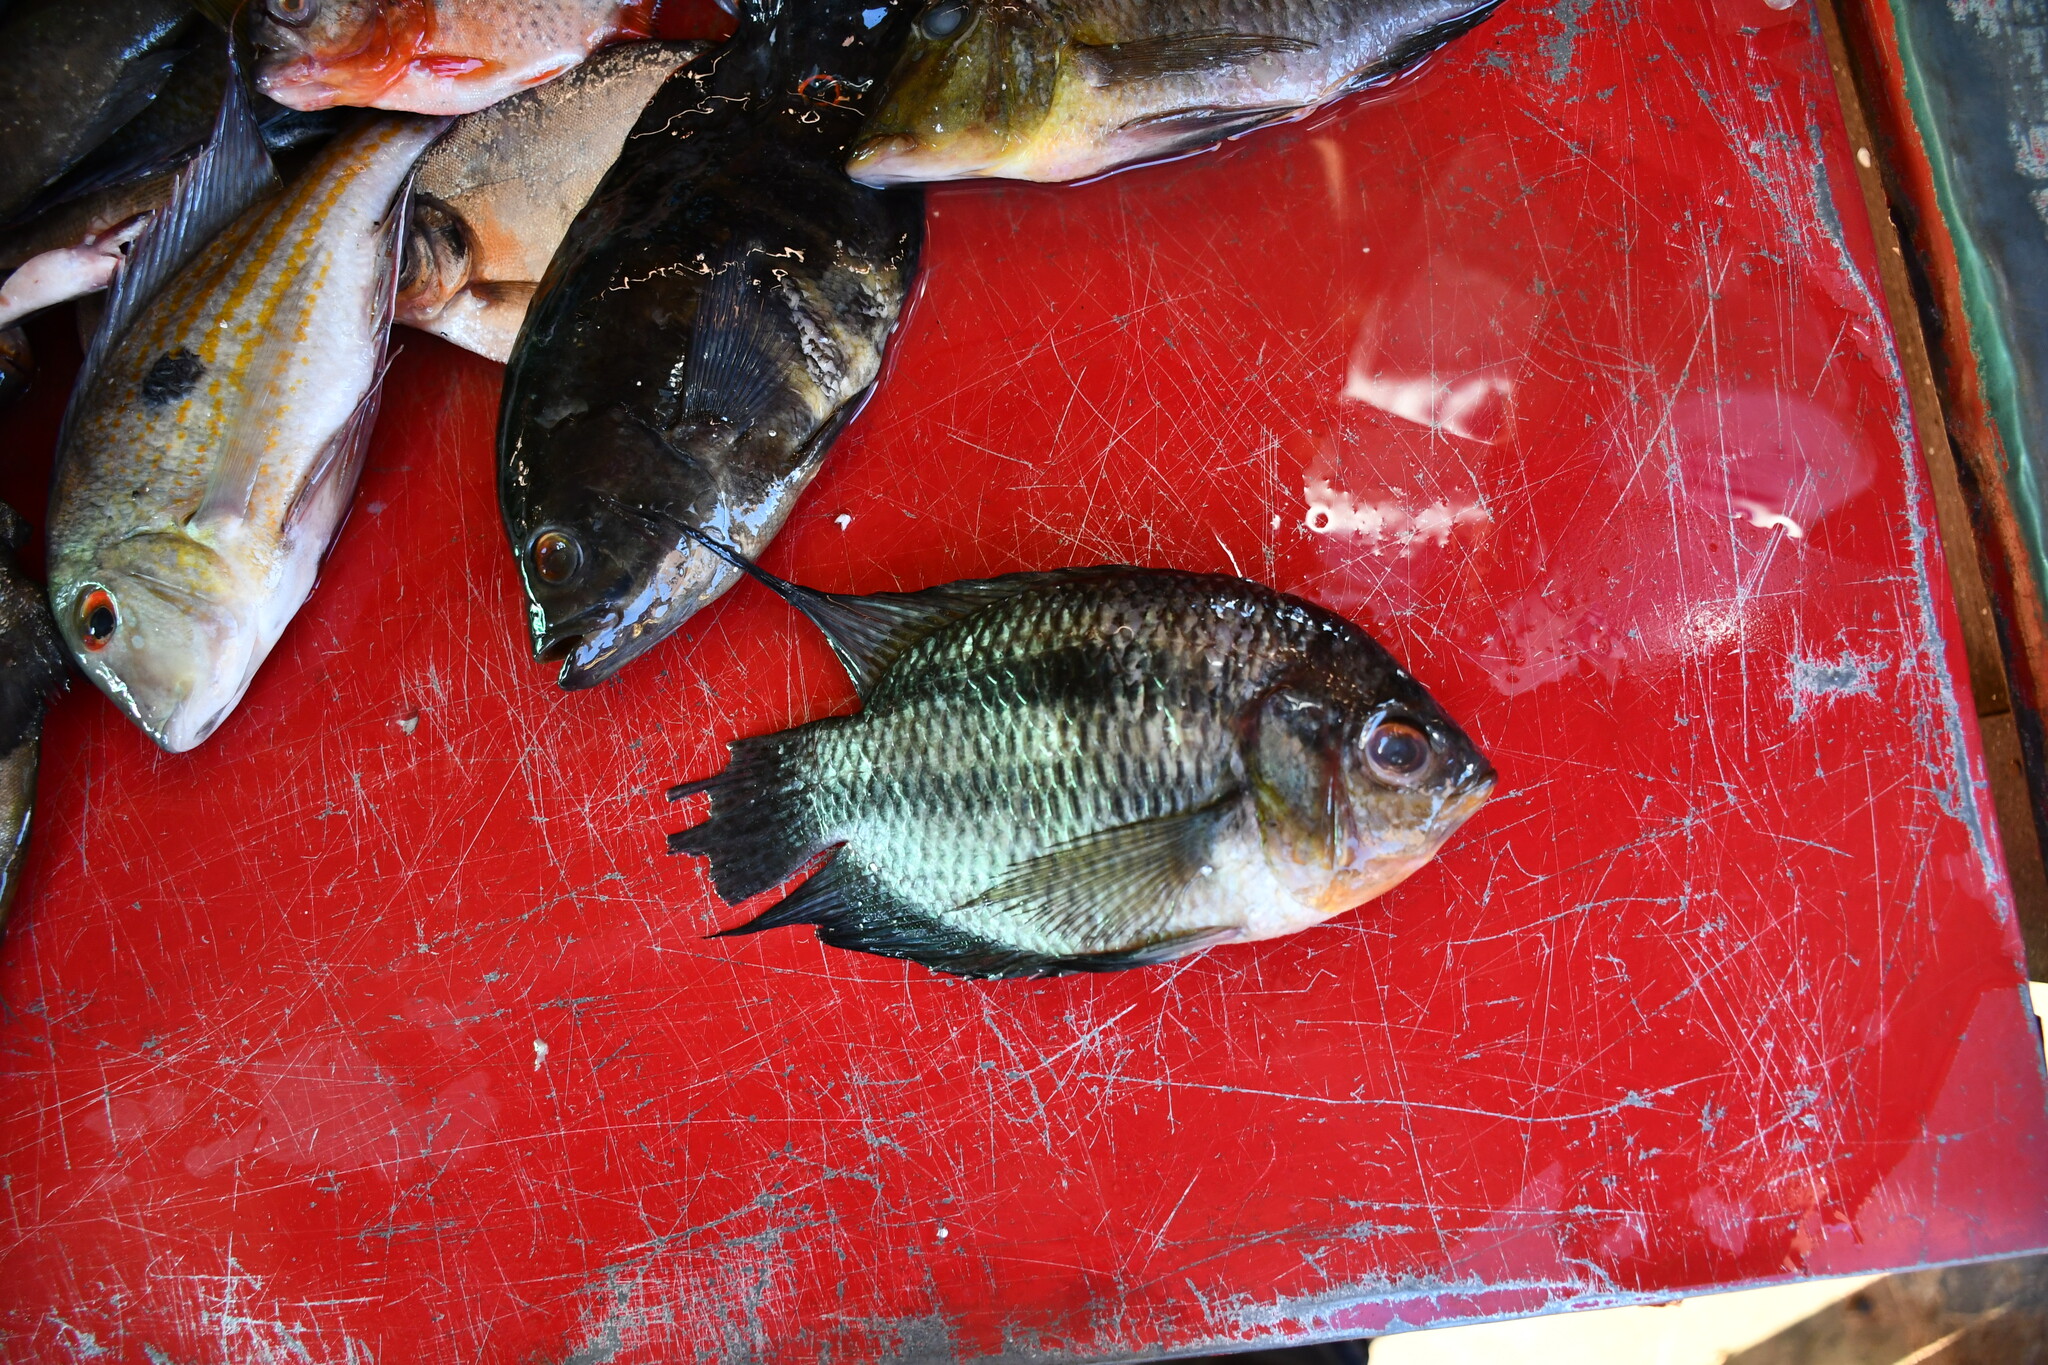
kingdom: Animalia
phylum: Chordata
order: Perciformes
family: Cichlidae
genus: Chaetobranchopsis
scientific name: Chaetobranchopsis orbicularis
